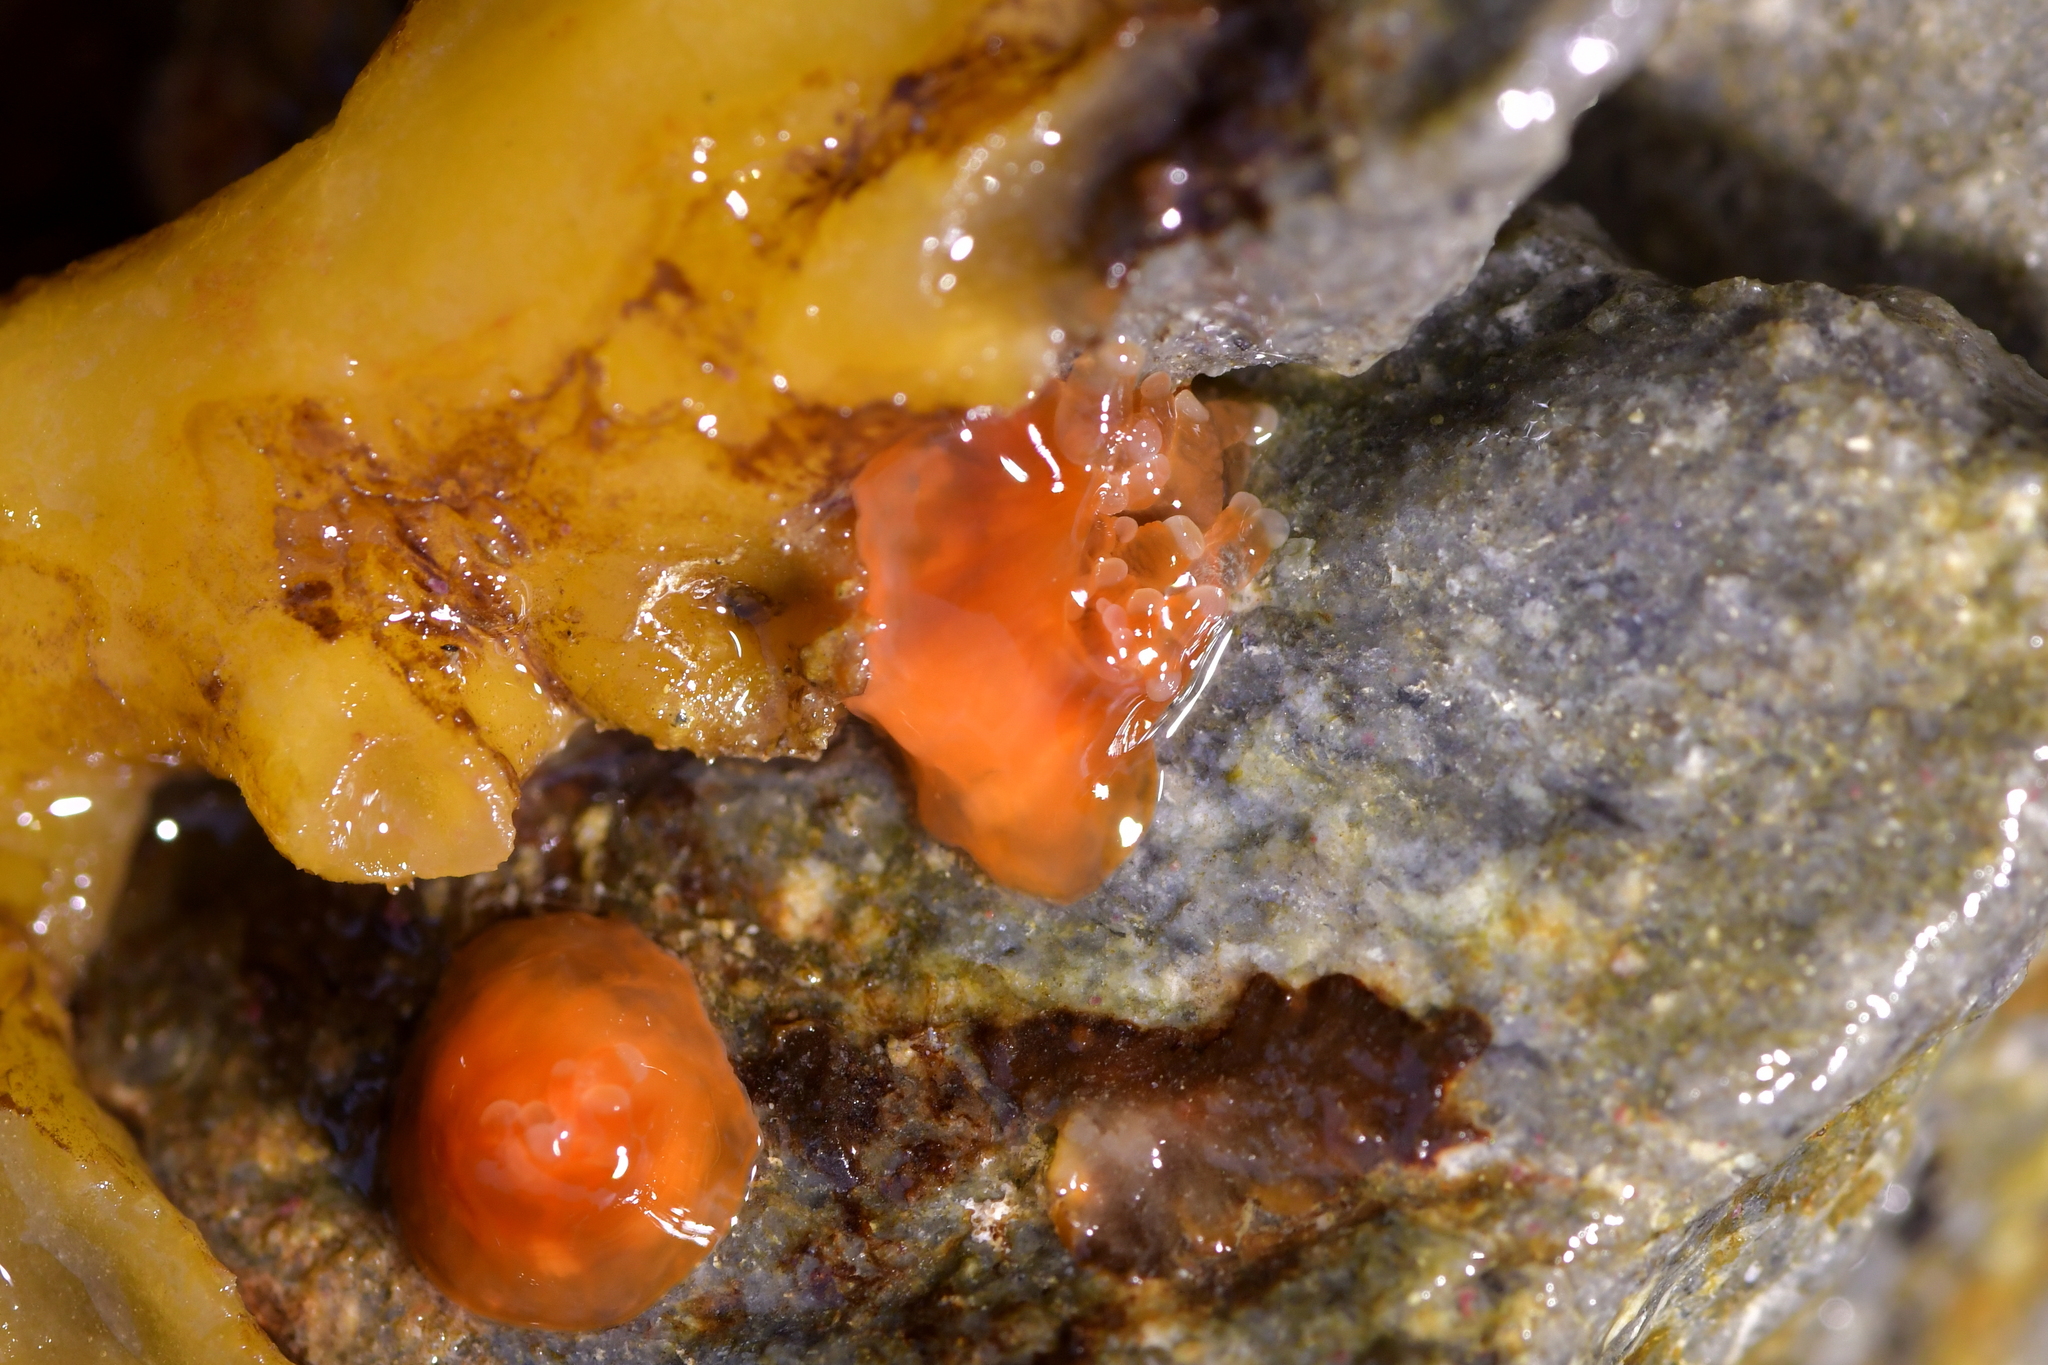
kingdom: Animalia
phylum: Cnidaria
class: Anthozoa
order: Corallimorpharia
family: Corallimorphidae
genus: Corynactis
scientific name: Corynactis australis
